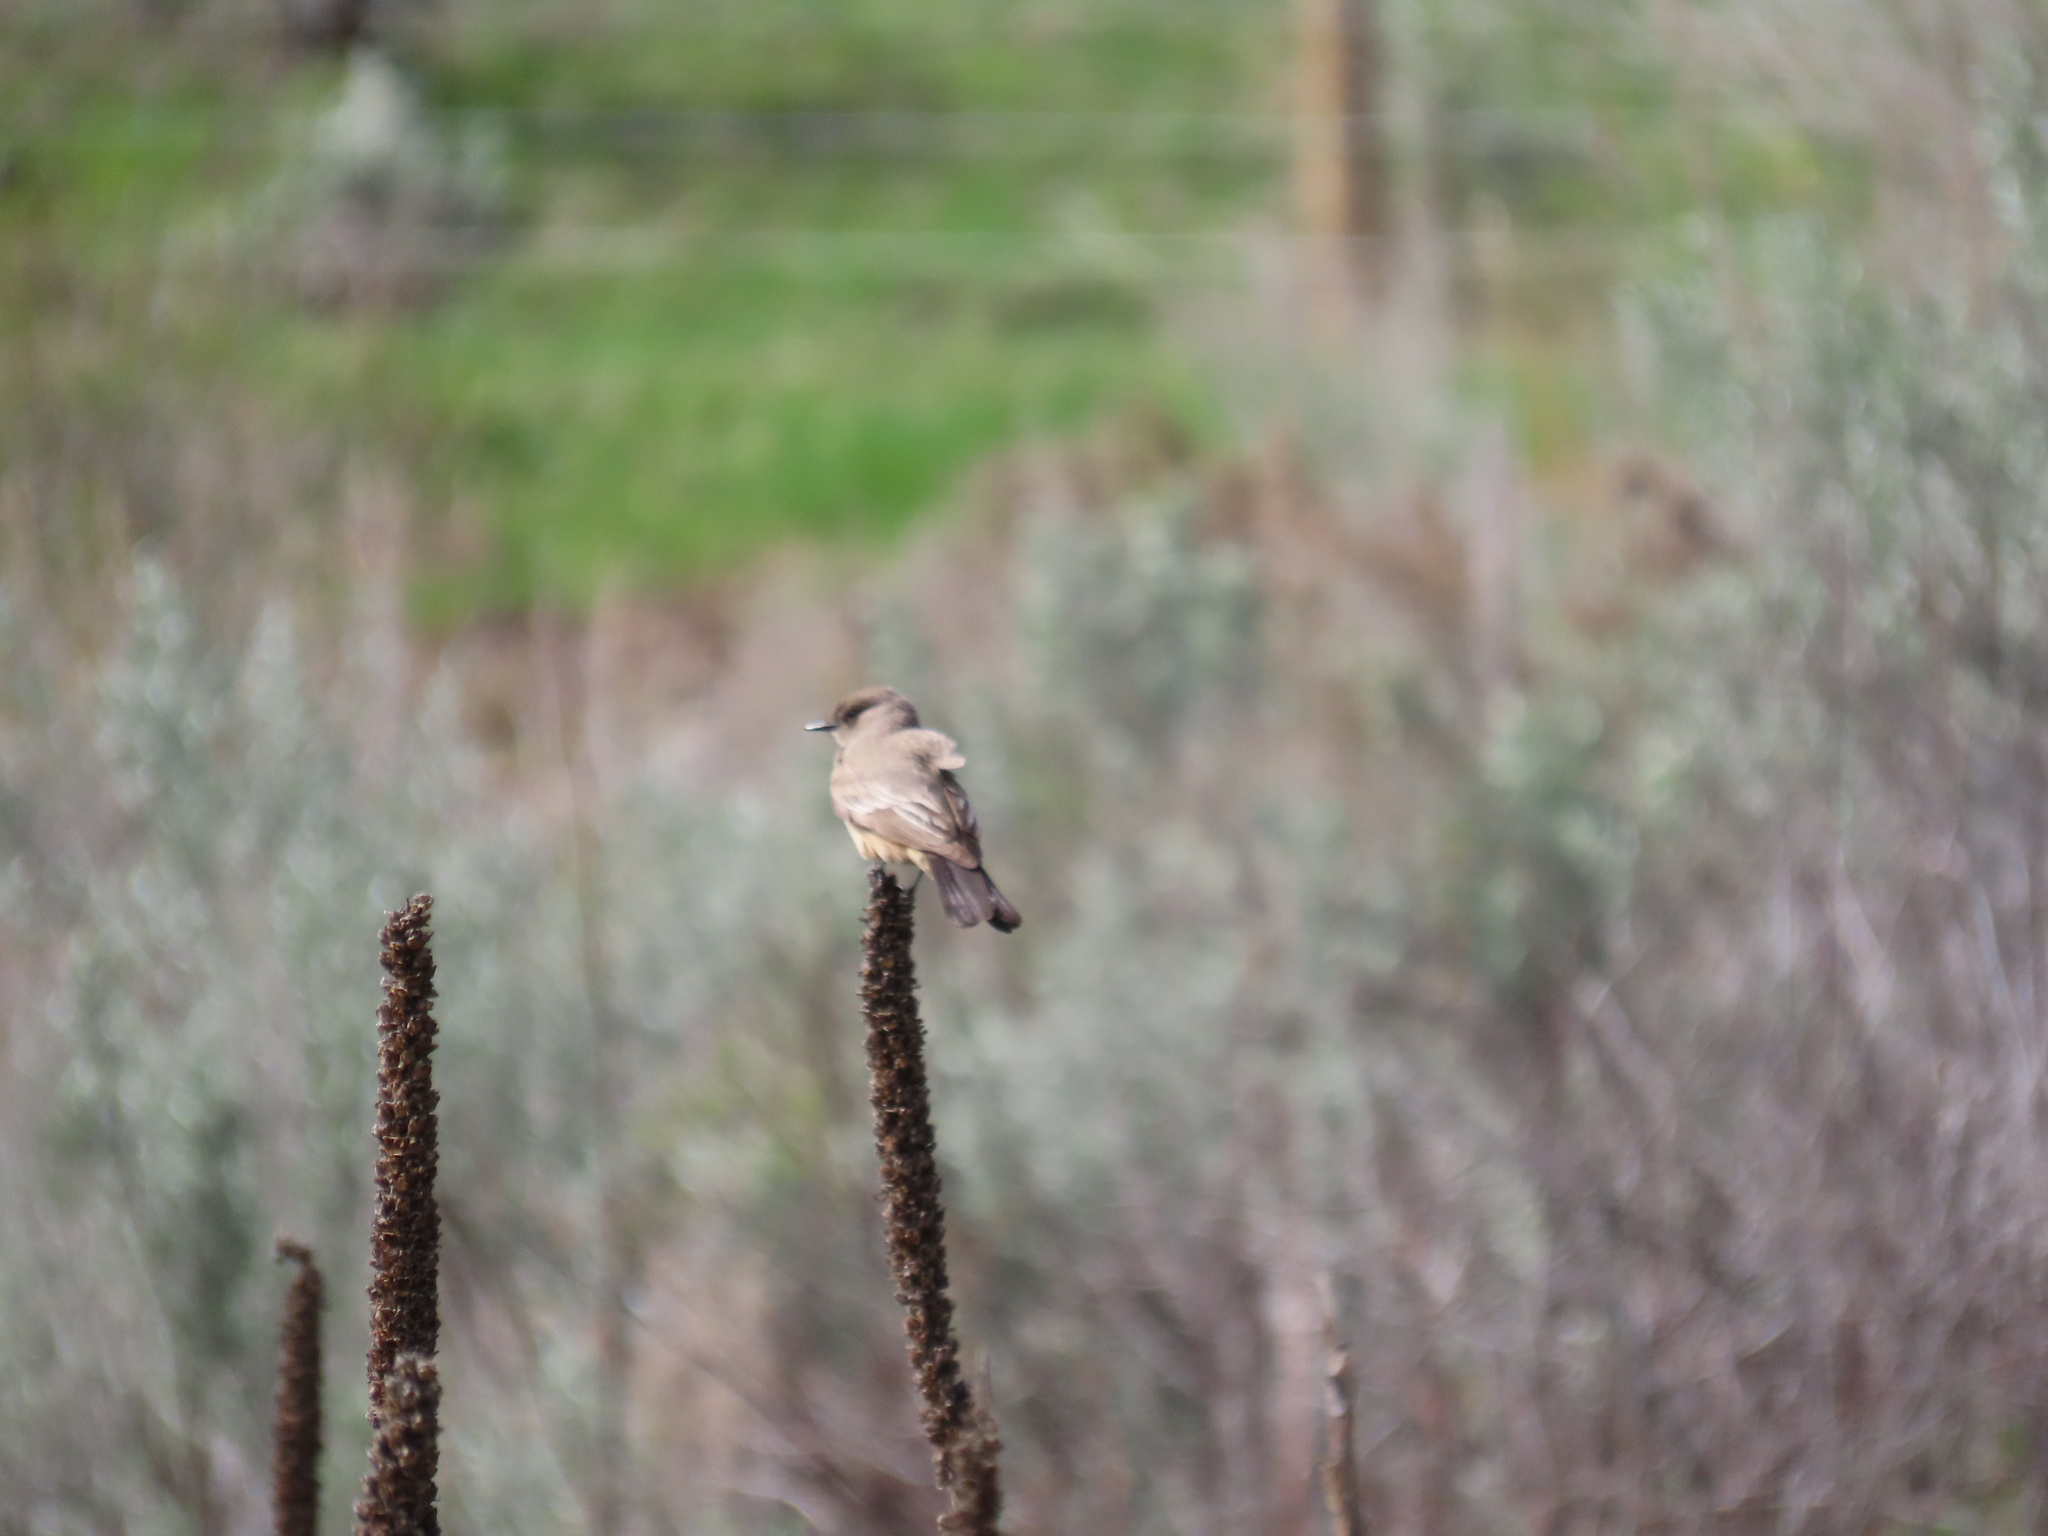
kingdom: Animalia
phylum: Chordata
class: Aves
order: Passeriformes
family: Tyrannidae
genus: Sayornis
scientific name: Sayornis saya
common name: Say's phoebe
